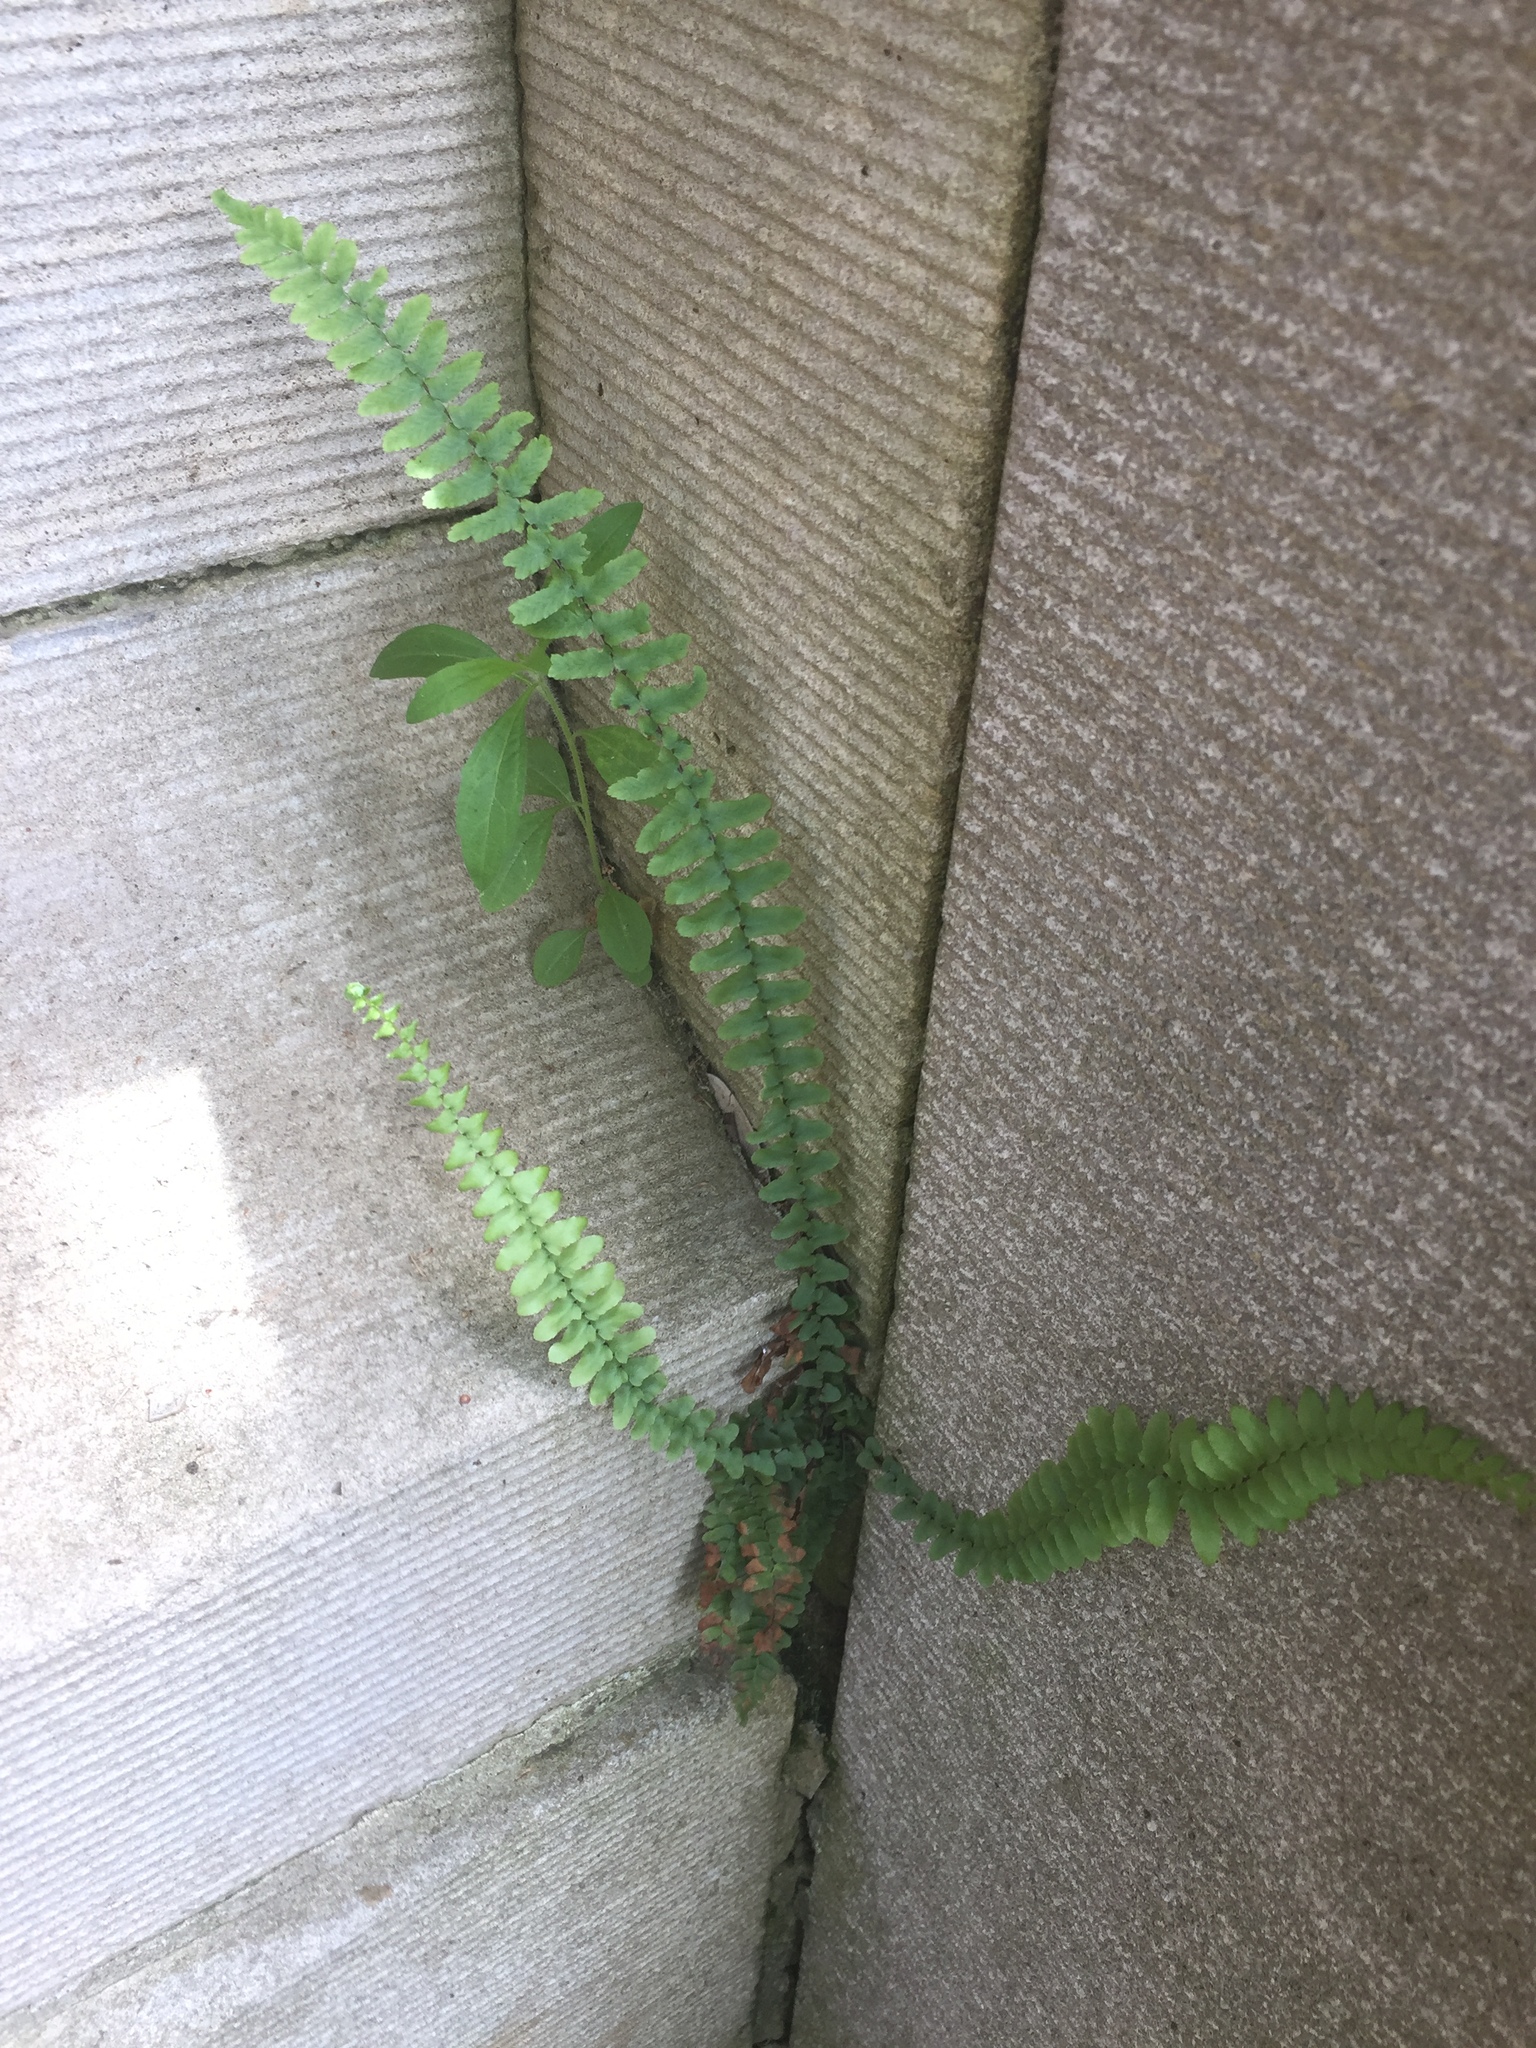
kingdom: Plantae
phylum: Tracheophyta
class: Polypodiopsida
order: Polypodiales
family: Aspleniaceae
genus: Asplenium
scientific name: Asplenium platyneuron
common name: Ebony spleenwort
